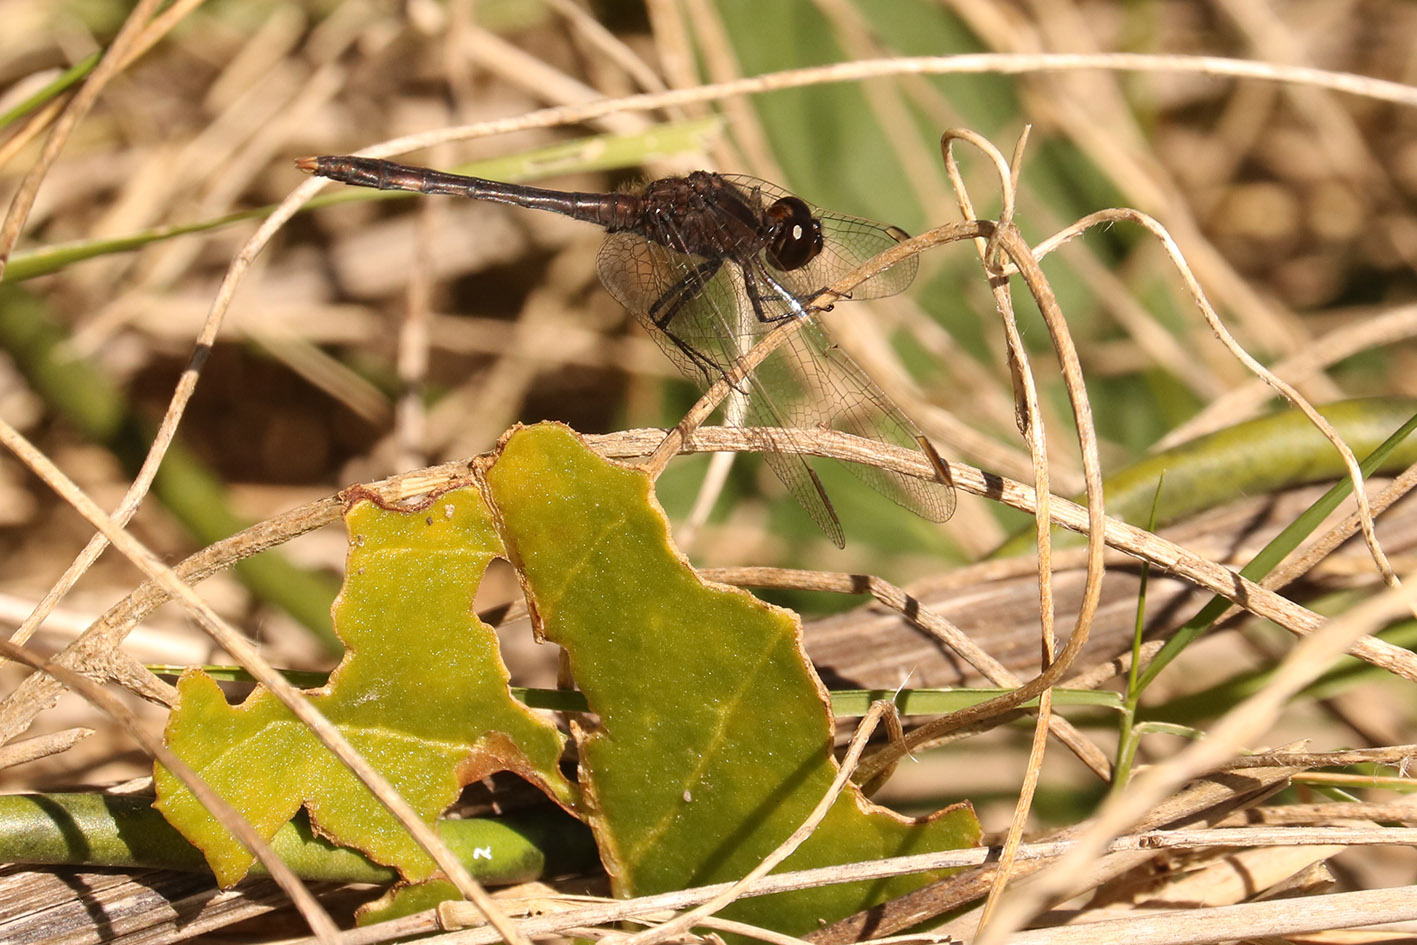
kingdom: Animalia
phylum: Arthropoda
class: Insecta
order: Odonata
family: Libellulidae
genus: Erythrodiplax
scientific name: Erythrodiplax nigricans
